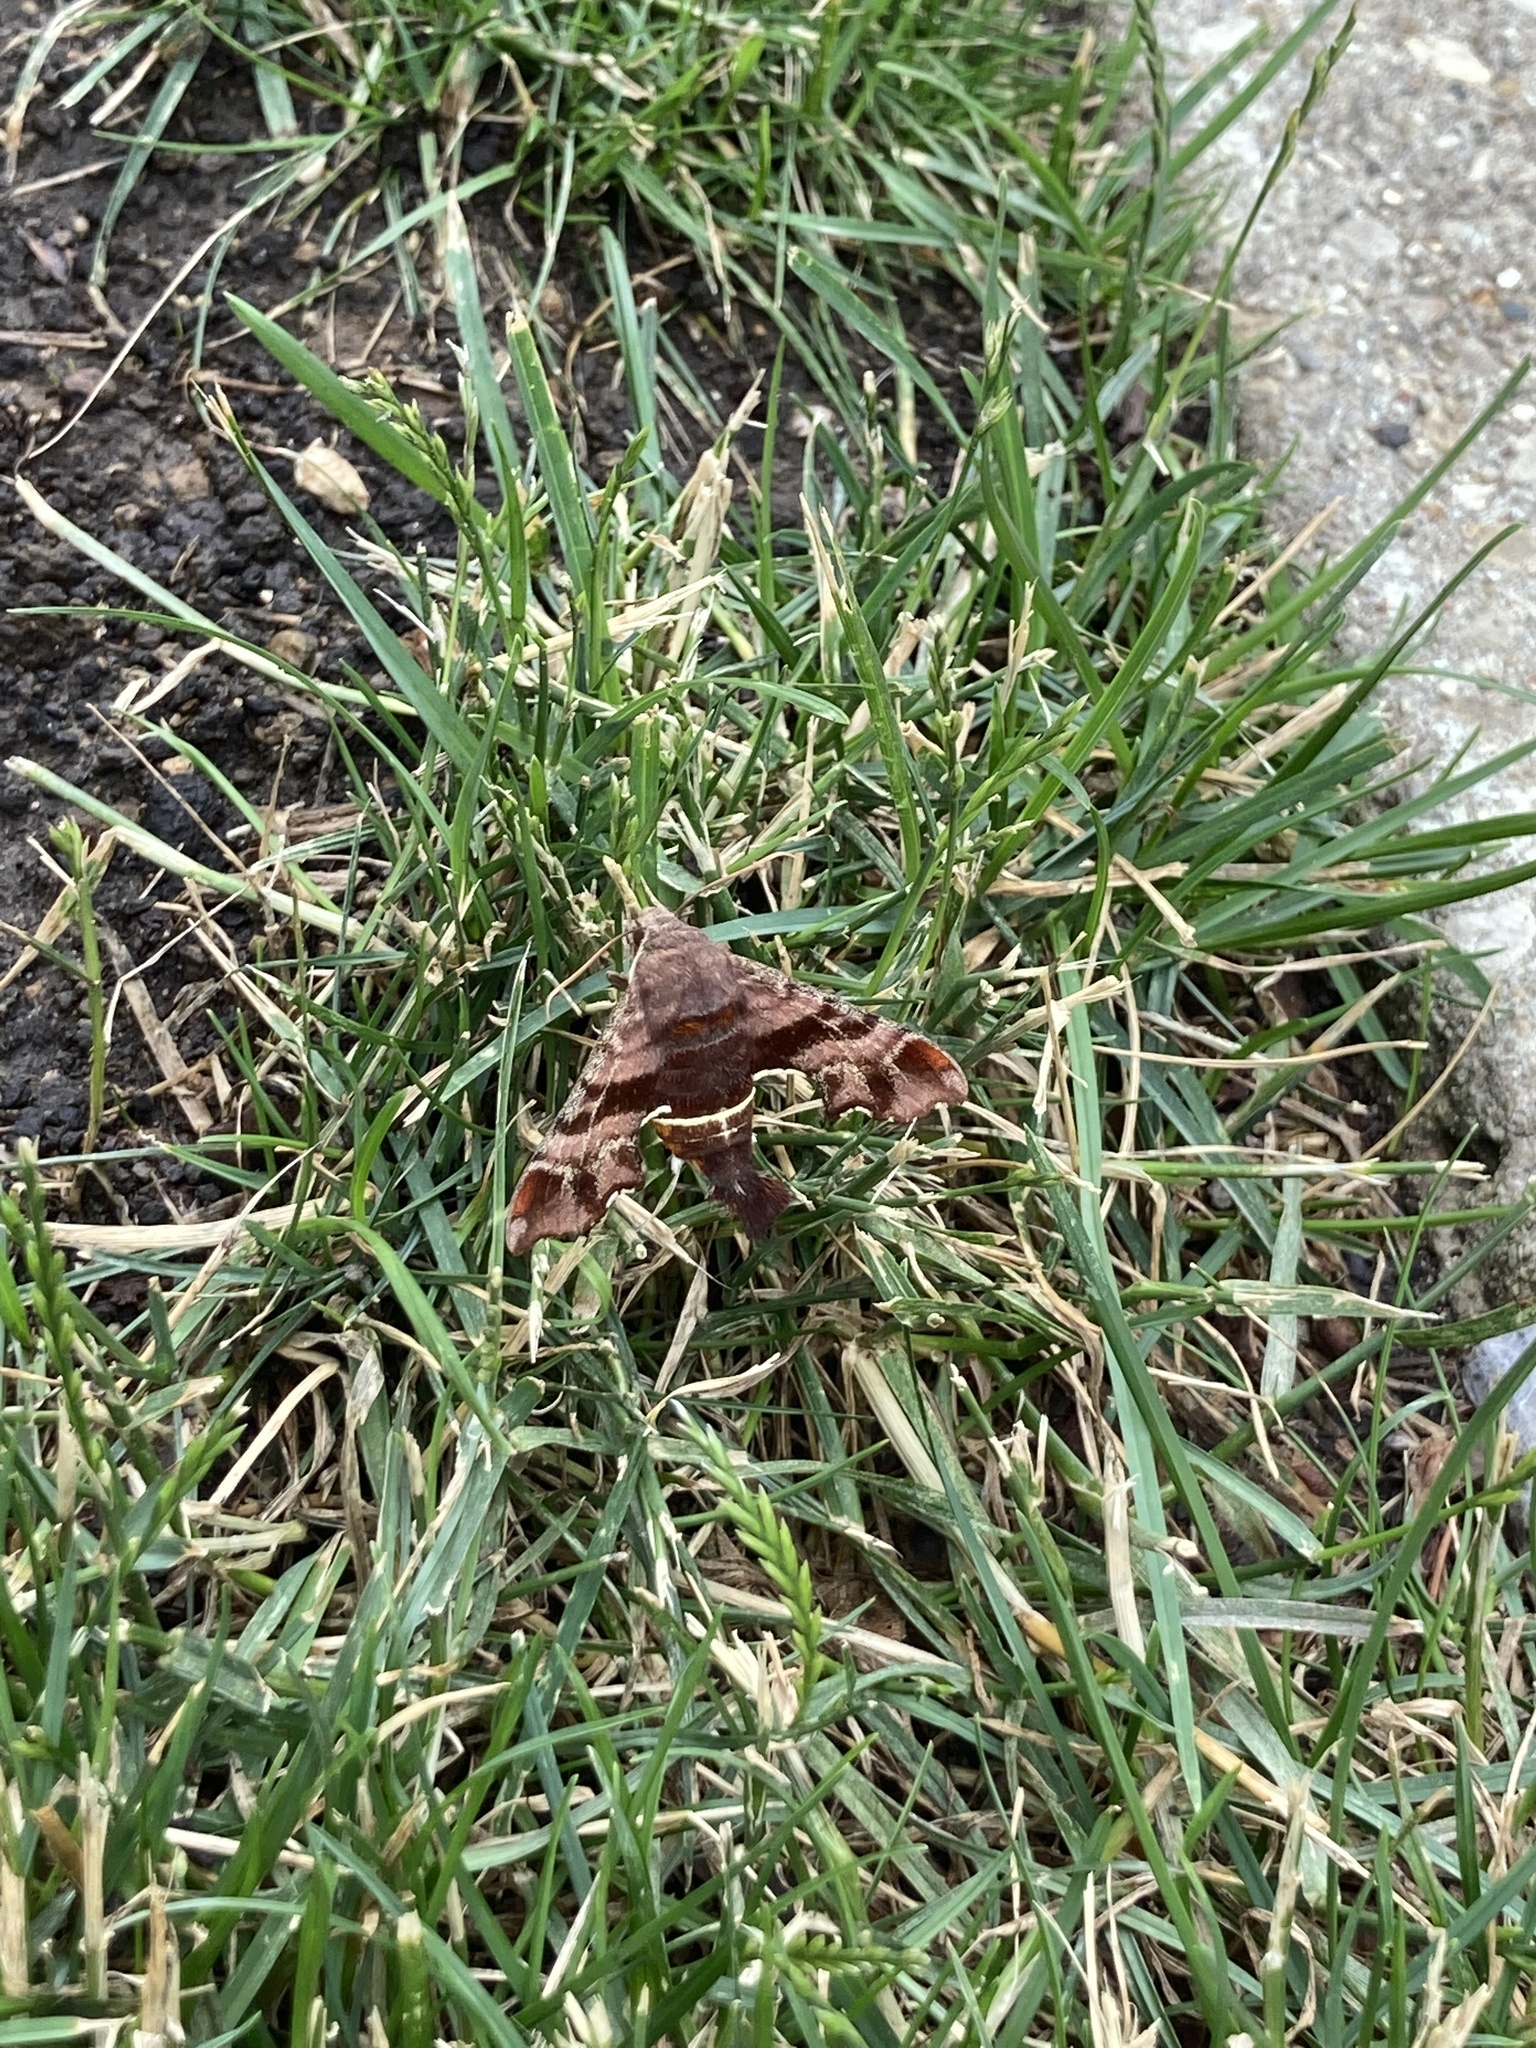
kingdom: Animalia
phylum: Arthropoda
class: Insecta
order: Lepidoptera
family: Sphingidae
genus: Amphion
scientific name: Amphion floridensis
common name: Nessus sphinx
